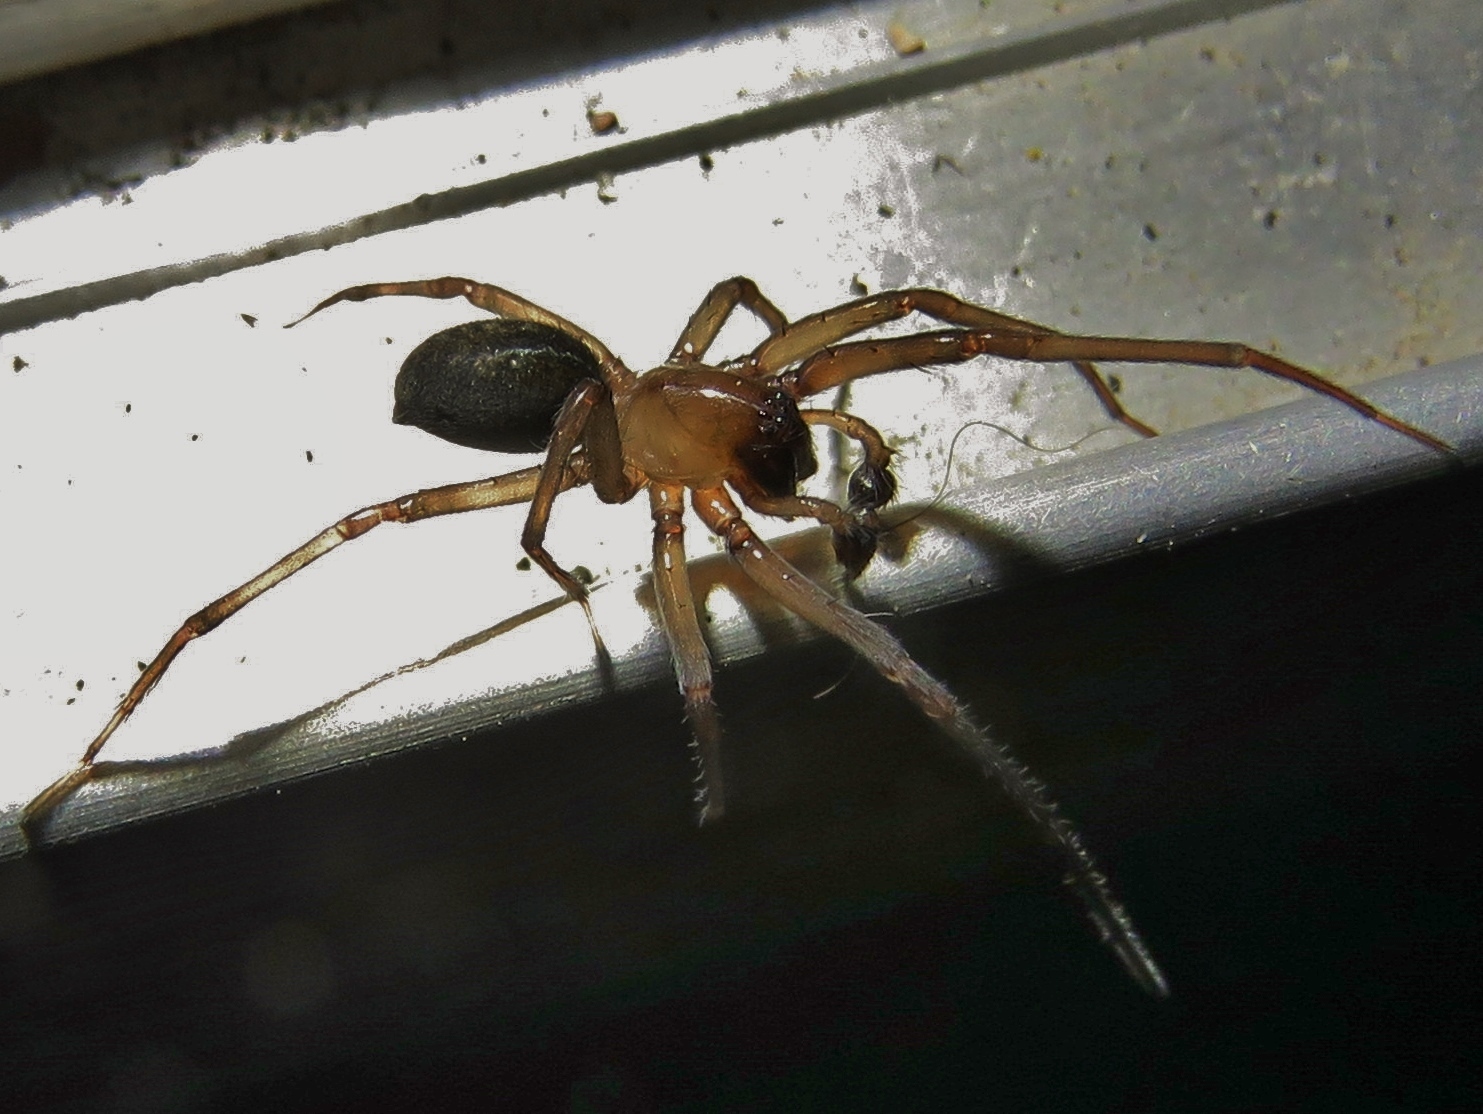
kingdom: Animalia
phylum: Arthropoda
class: Arachnida
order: Araneae
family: Desidae
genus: Metaltella
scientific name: Metaltella simoni
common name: Cribellate spider
